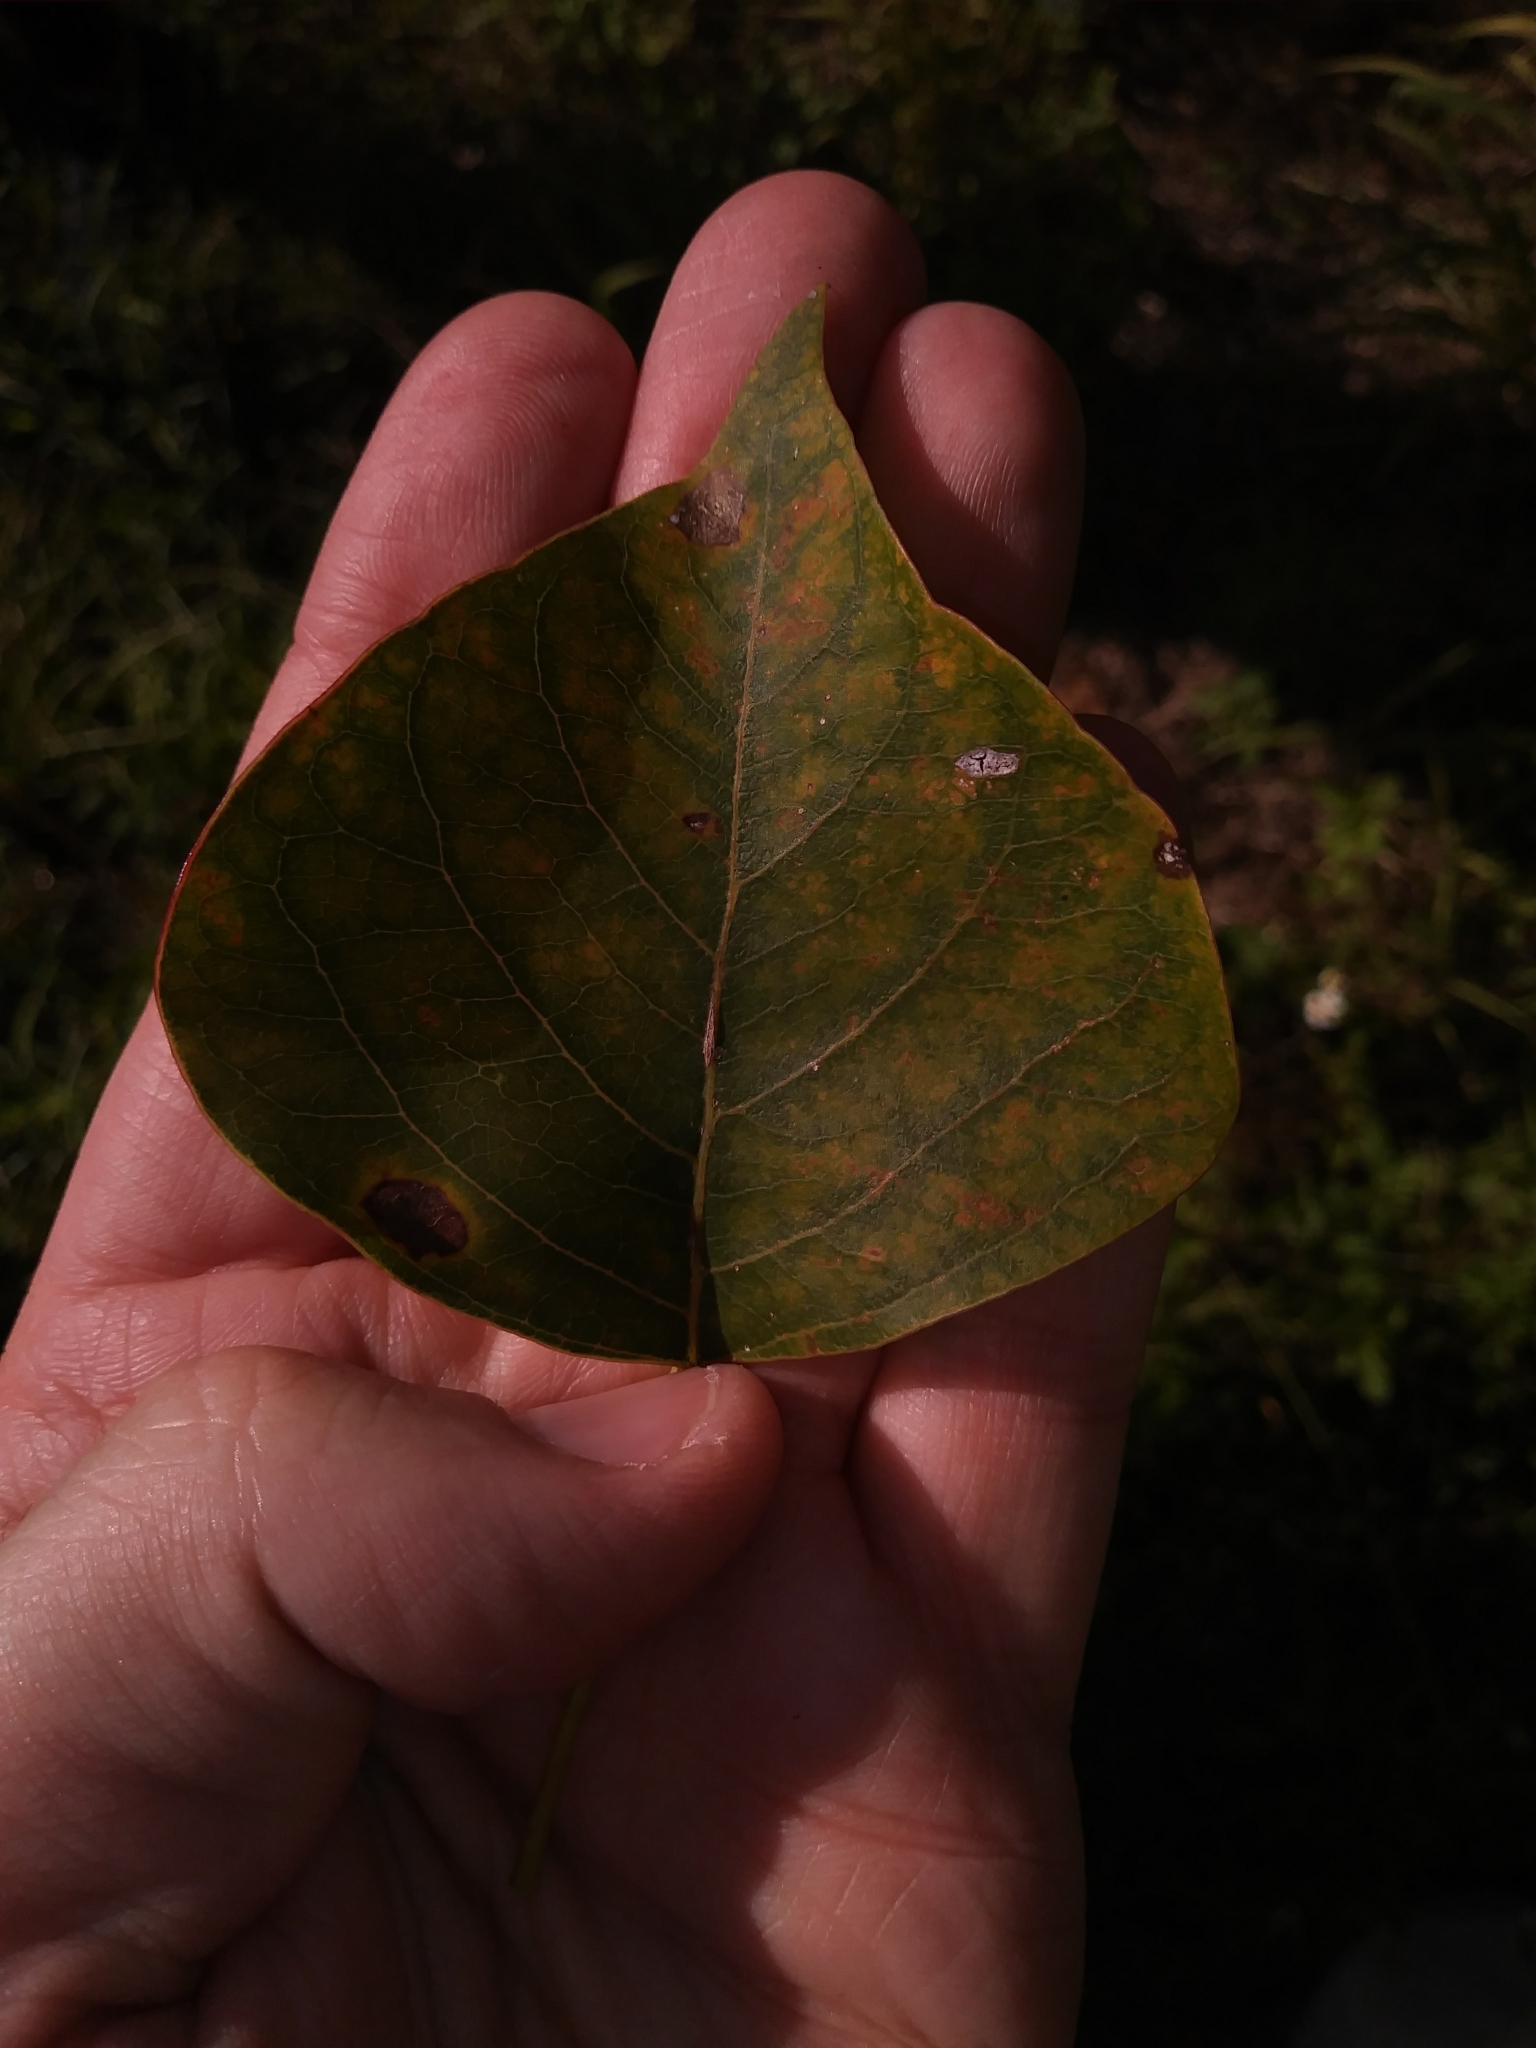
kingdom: Plantae
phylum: Tracheophyta
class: Magnoliopsida
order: Malpighiales
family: Euphorbiaceae
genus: Triadica
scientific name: Triadica sebifera
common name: Chinese tallow
